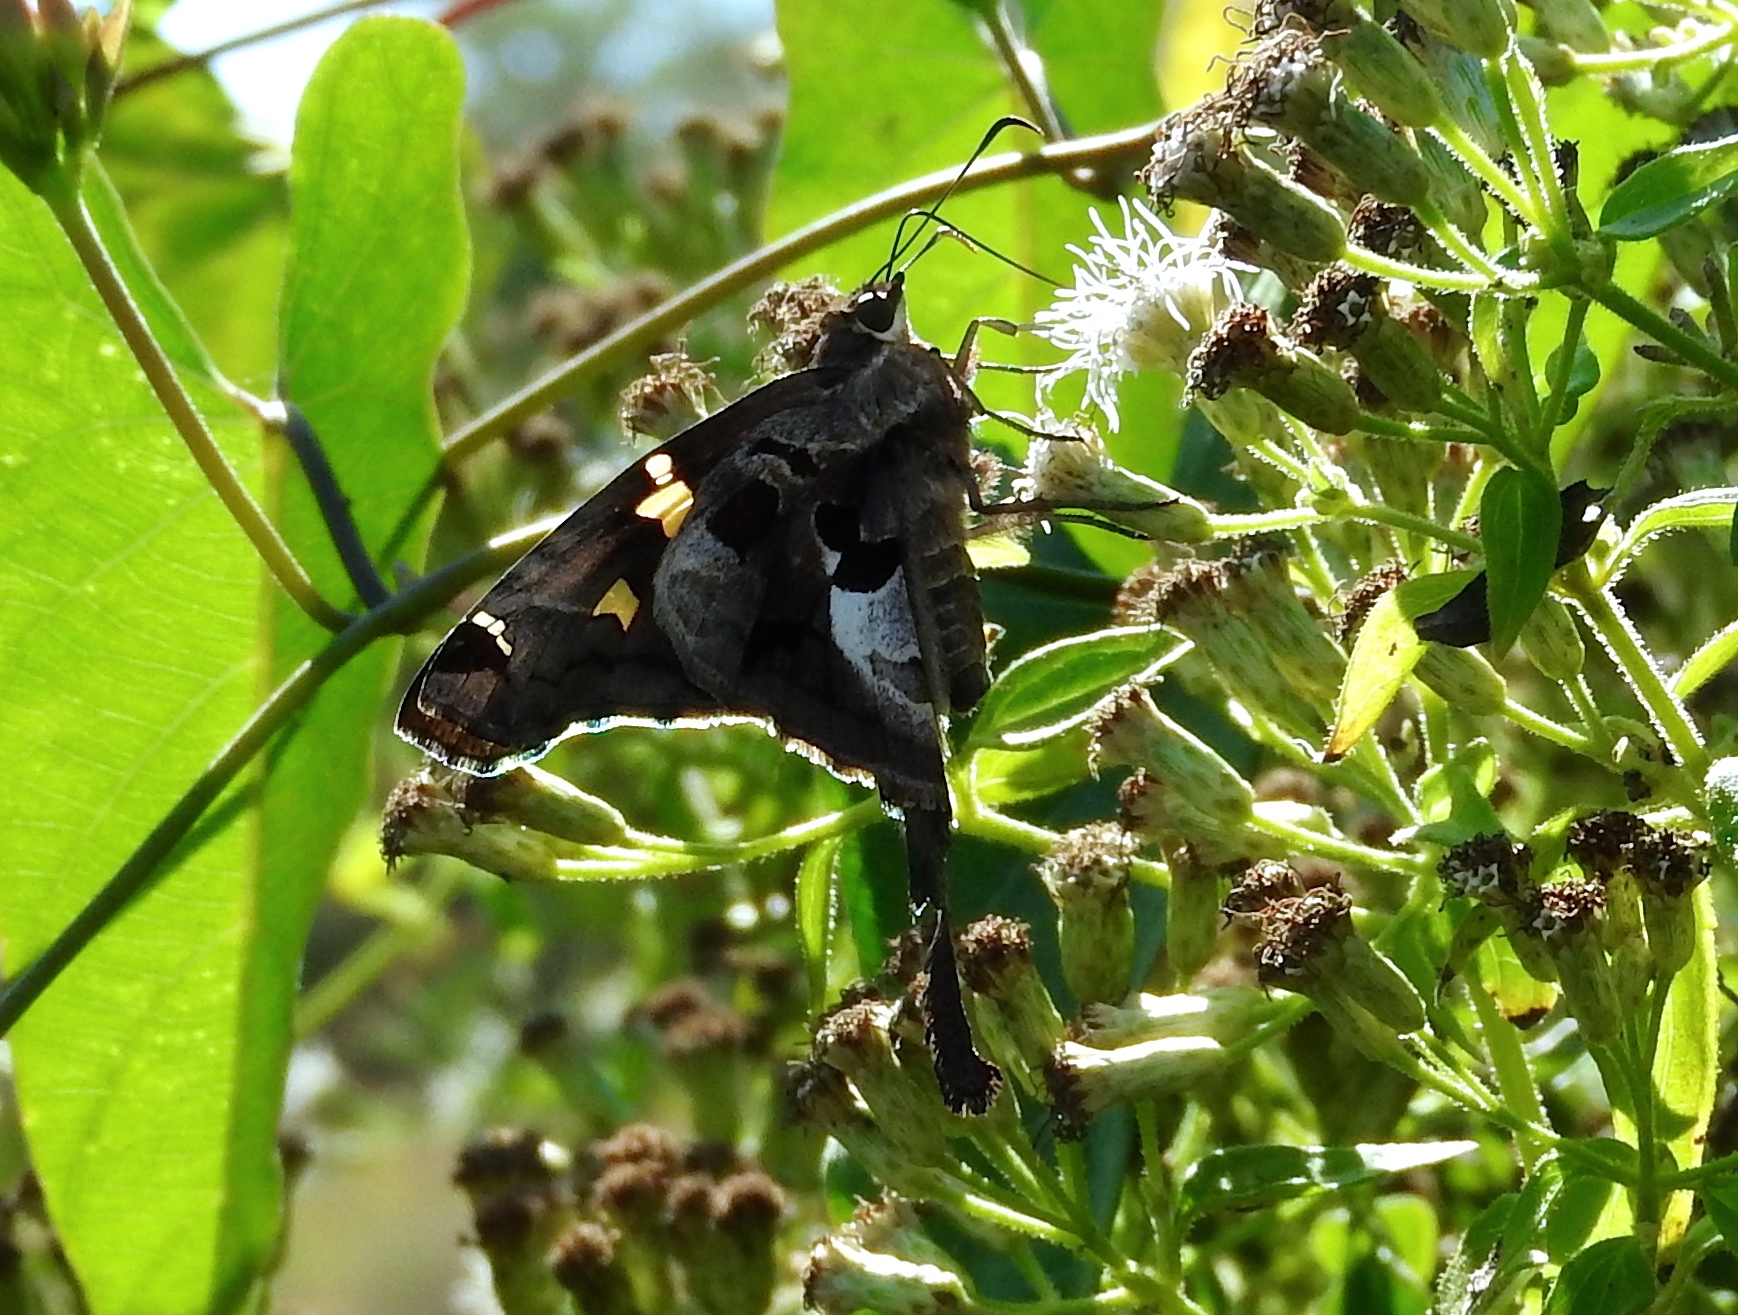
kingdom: Animalia
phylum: Arthropoda
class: Insecta
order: Lepidoptera
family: Hesperiidae
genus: Chioides
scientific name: Chioides zilpa
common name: Zilpa longtail
